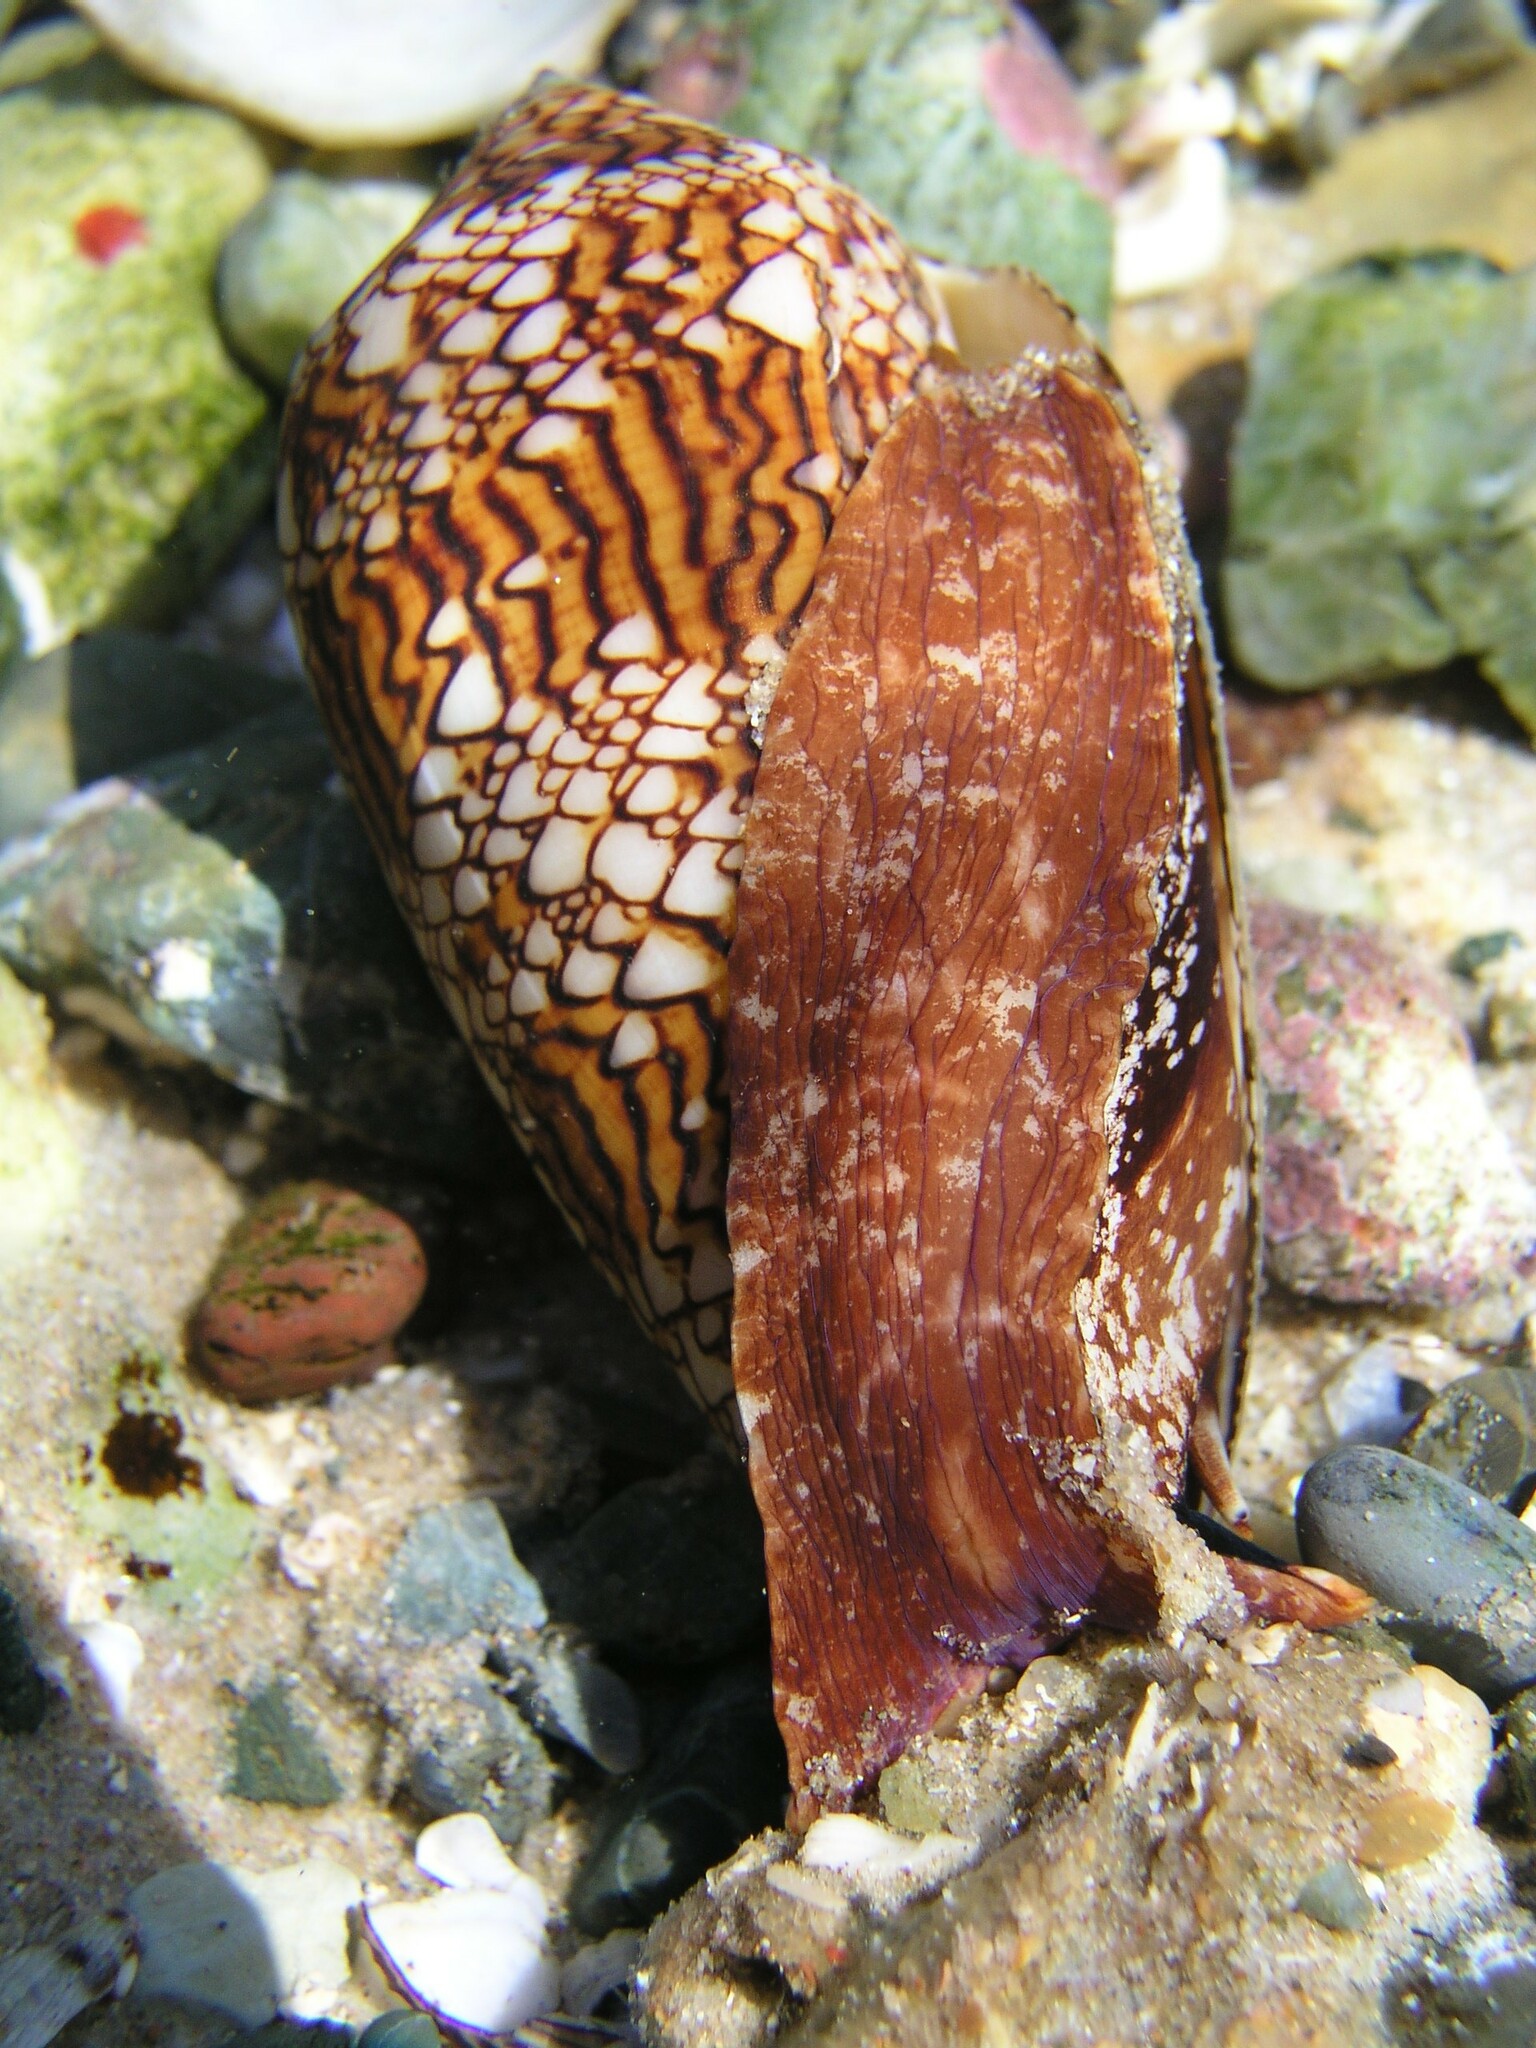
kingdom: Animalia
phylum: Mollusca
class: Gastropoda
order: Neogastropoda
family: Conidae
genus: Conus
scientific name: Conus textile
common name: Cloth-of-gold cone
